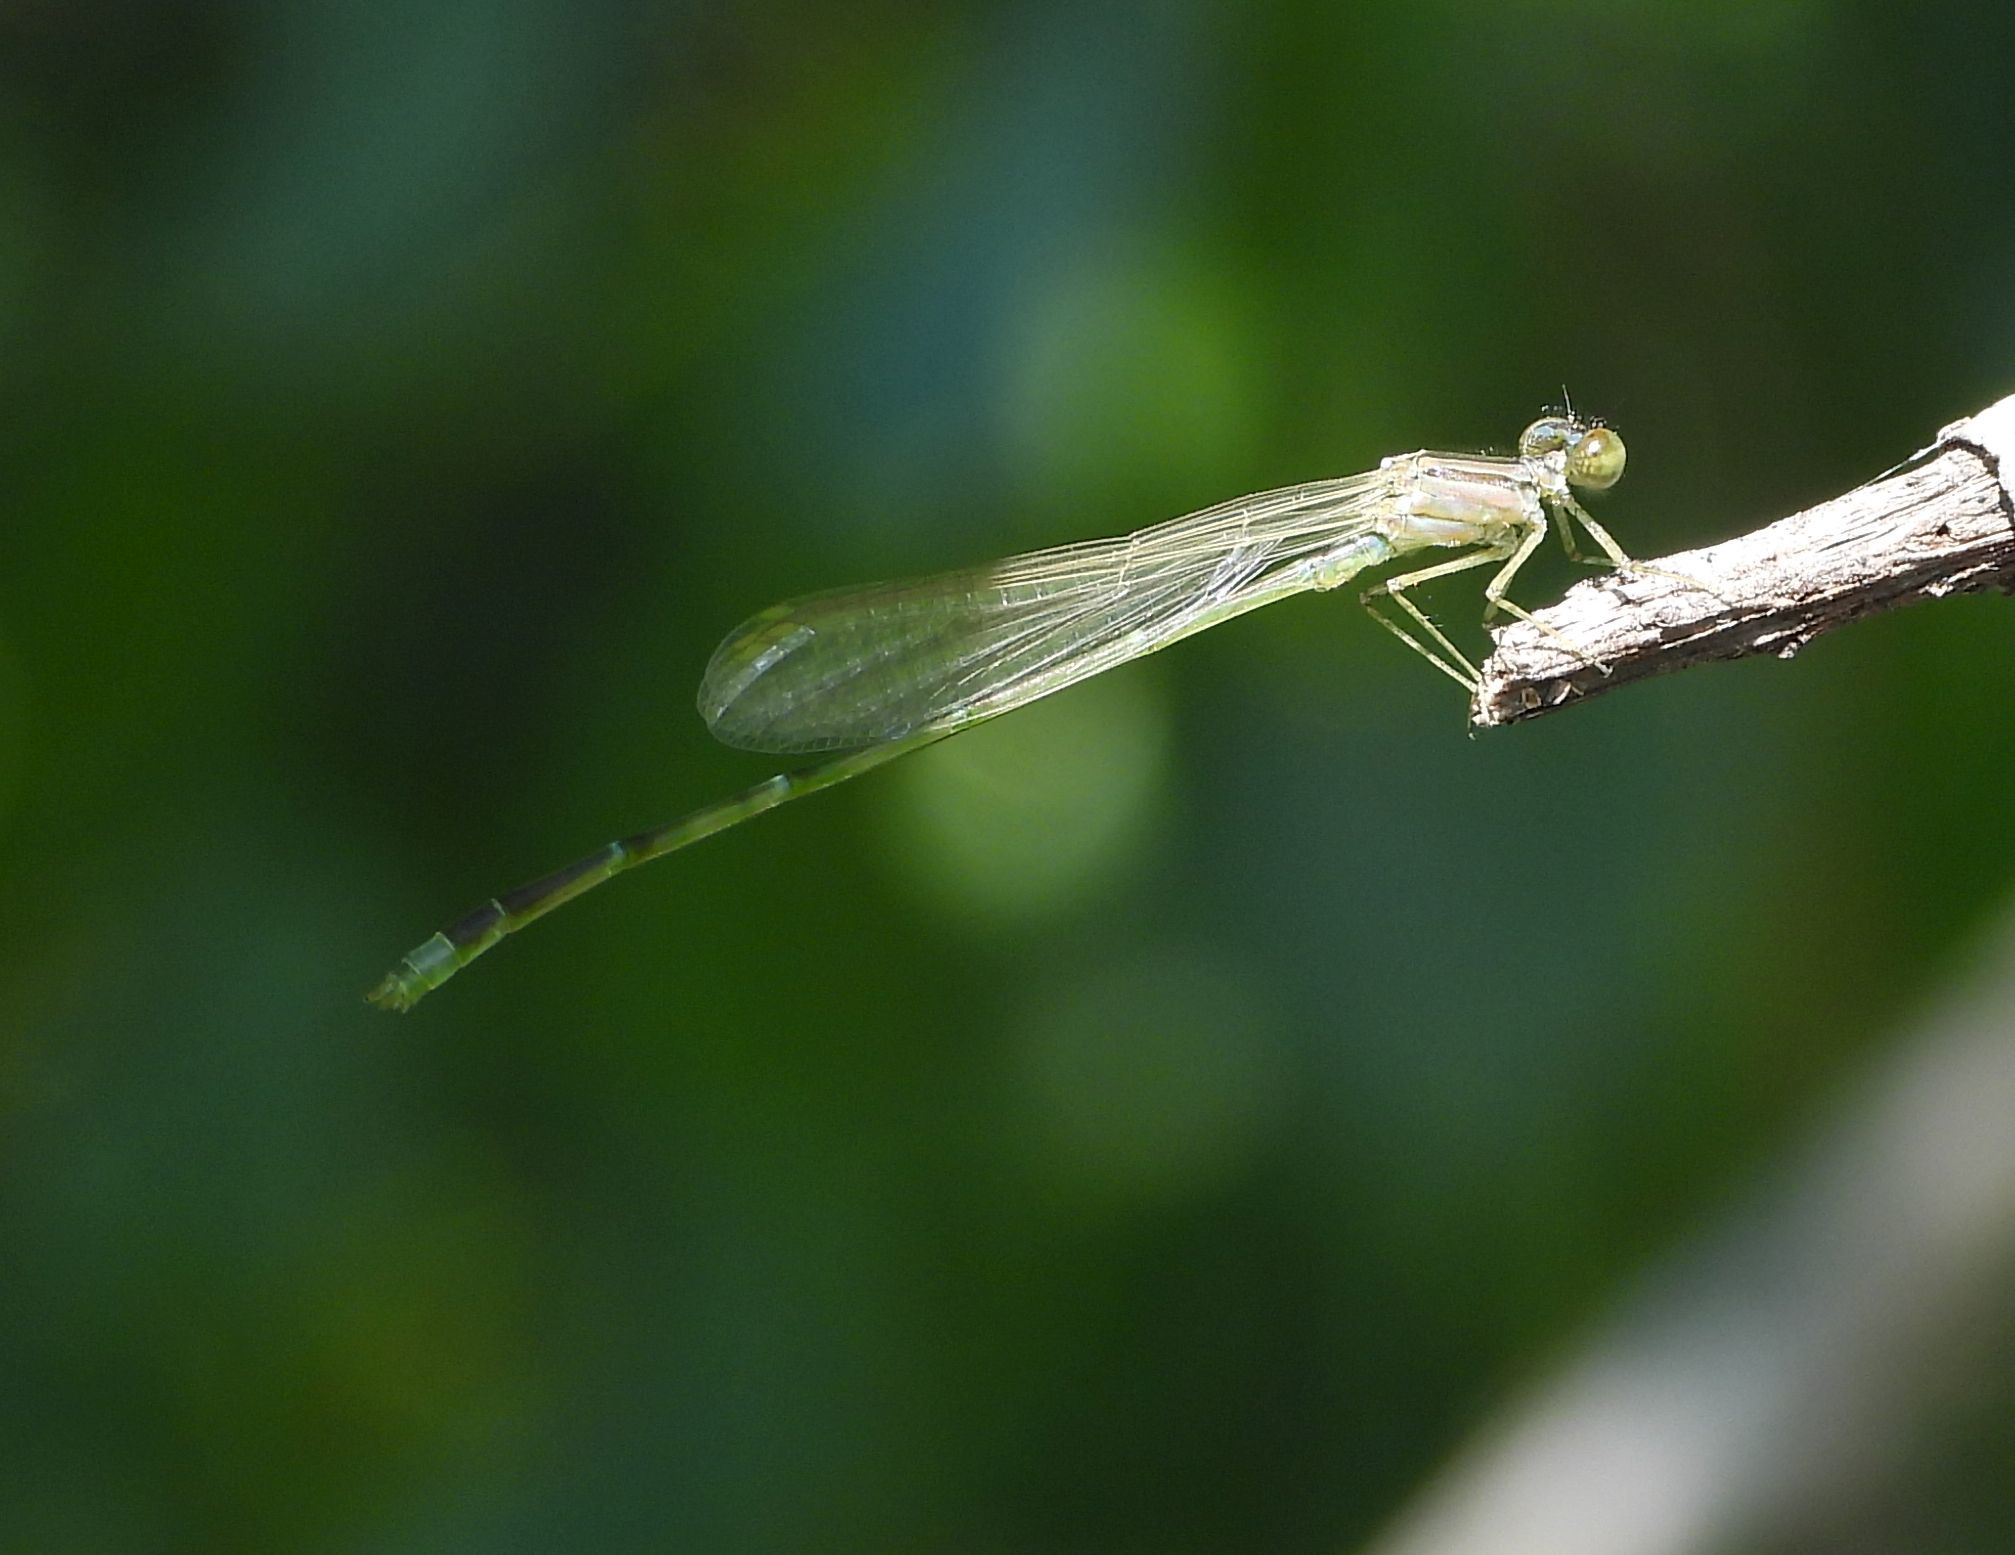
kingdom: Animalia
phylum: Arthropoda
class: Insecta
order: Odonata
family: Coenagrionidae
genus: Enallagma
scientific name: Enallagma signatum
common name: Orange bluet
